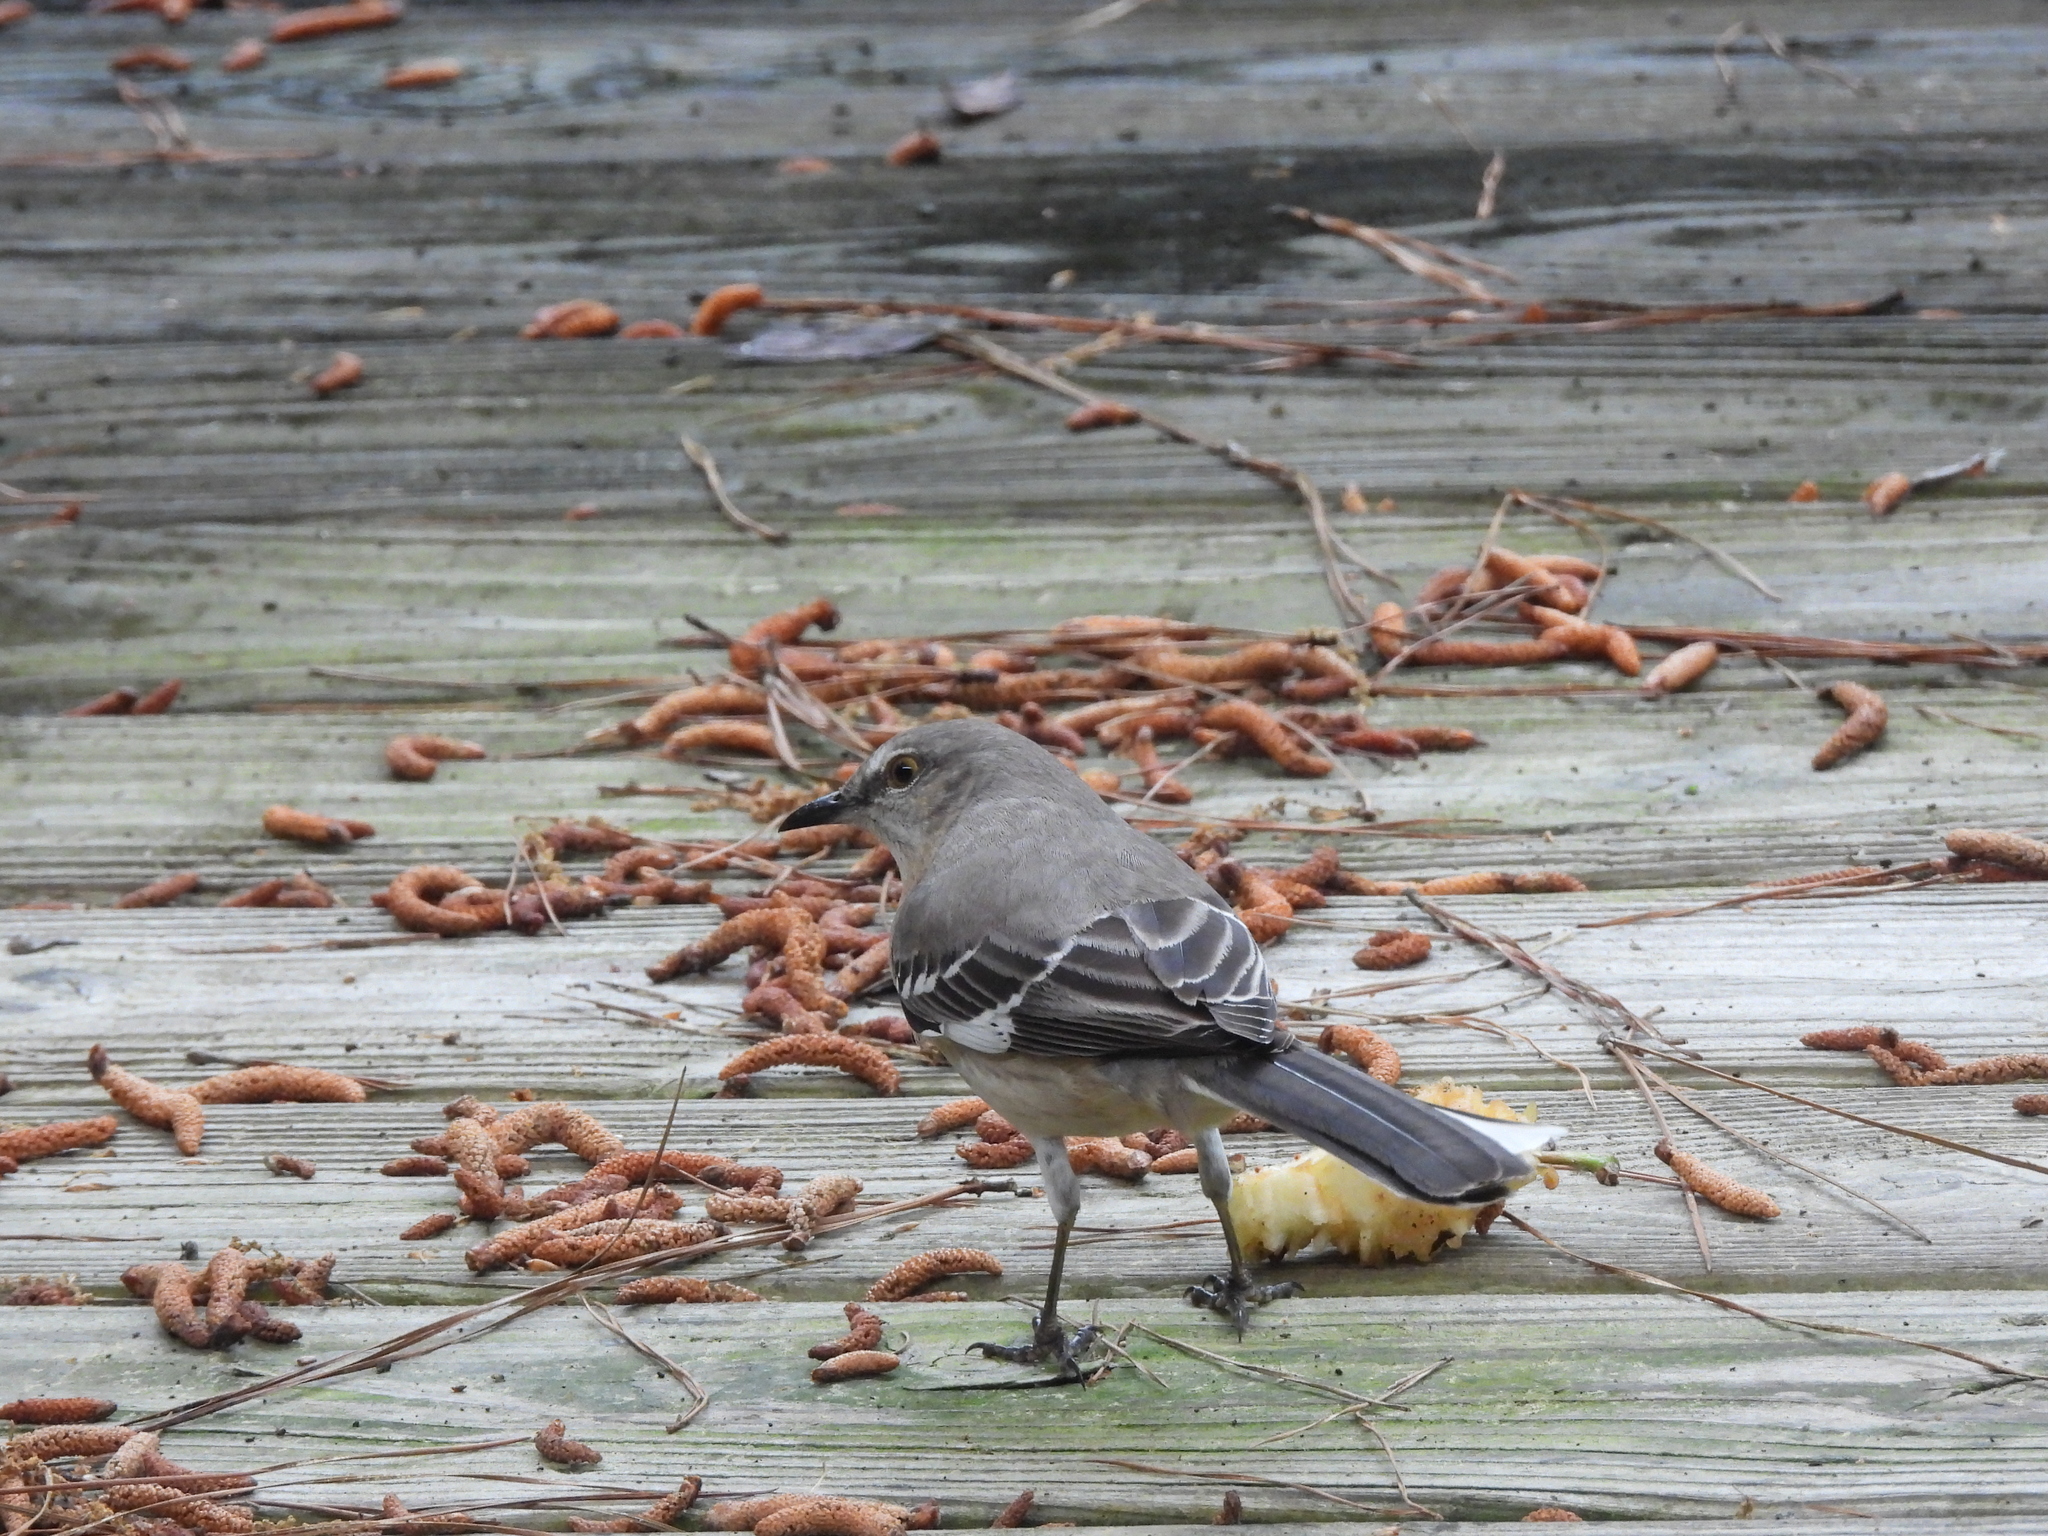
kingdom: Animalia
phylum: Chordata
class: Aves
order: Passeriformes
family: Mimidae
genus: Mimus
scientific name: Mimus polyglottos
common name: Northern mockingbird
